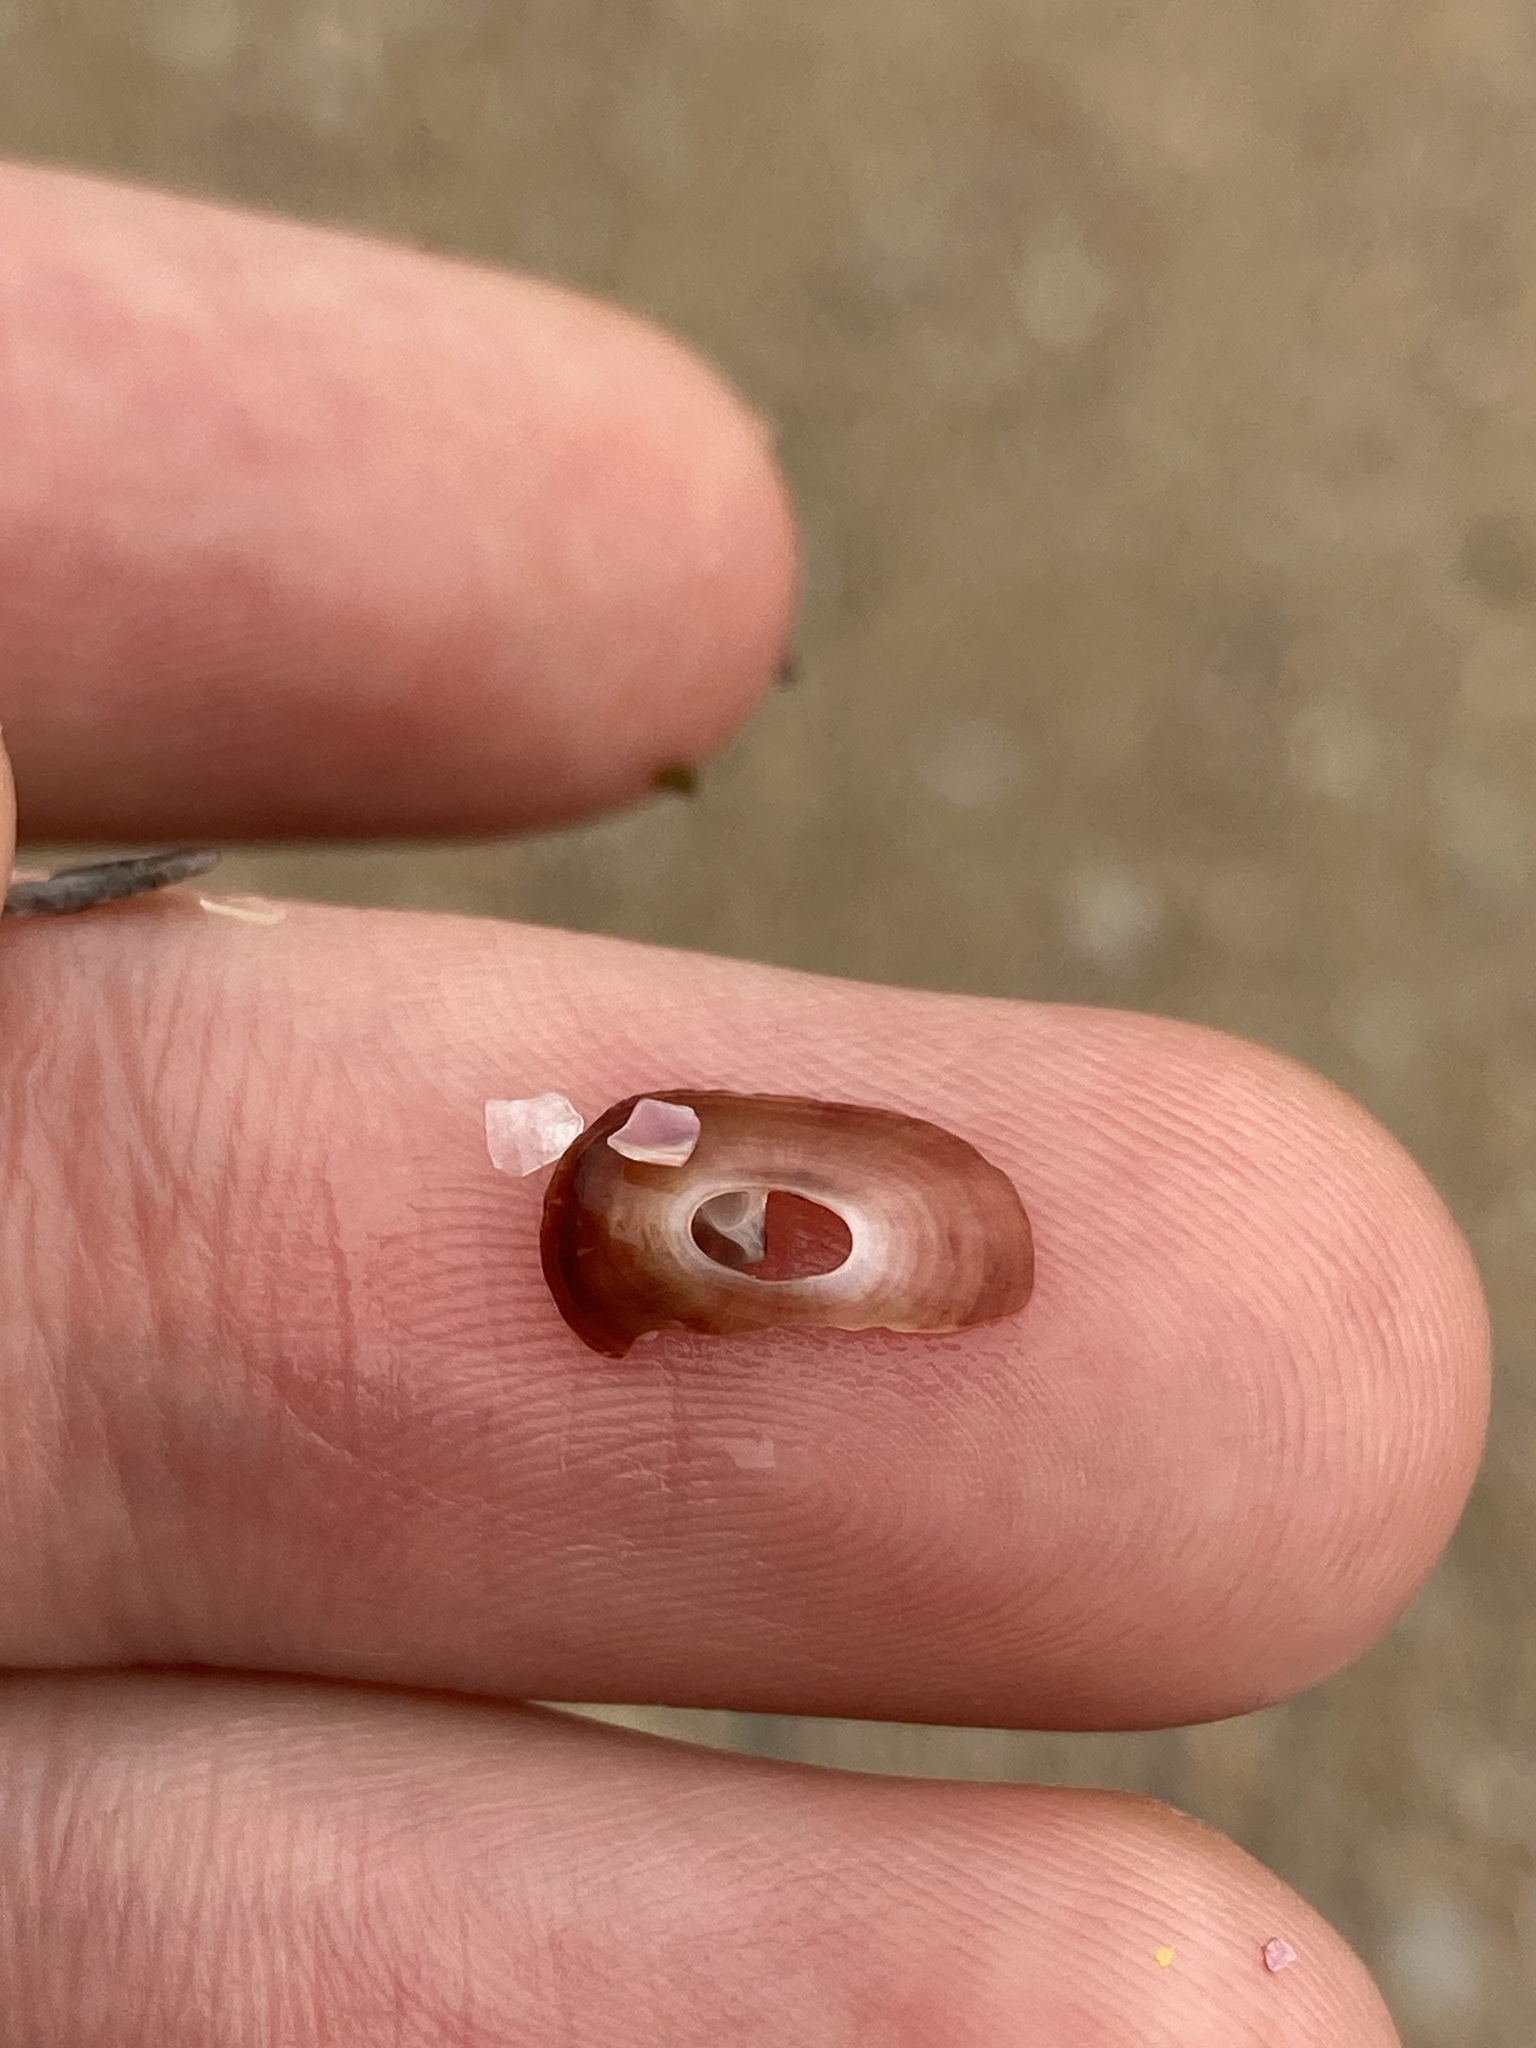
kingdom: Animalia
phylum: Mollusca
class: Gastropoda
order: Lepetellida
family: Fissurellidae
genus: Amblychilepas
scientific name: Amblychilepas nigrita
